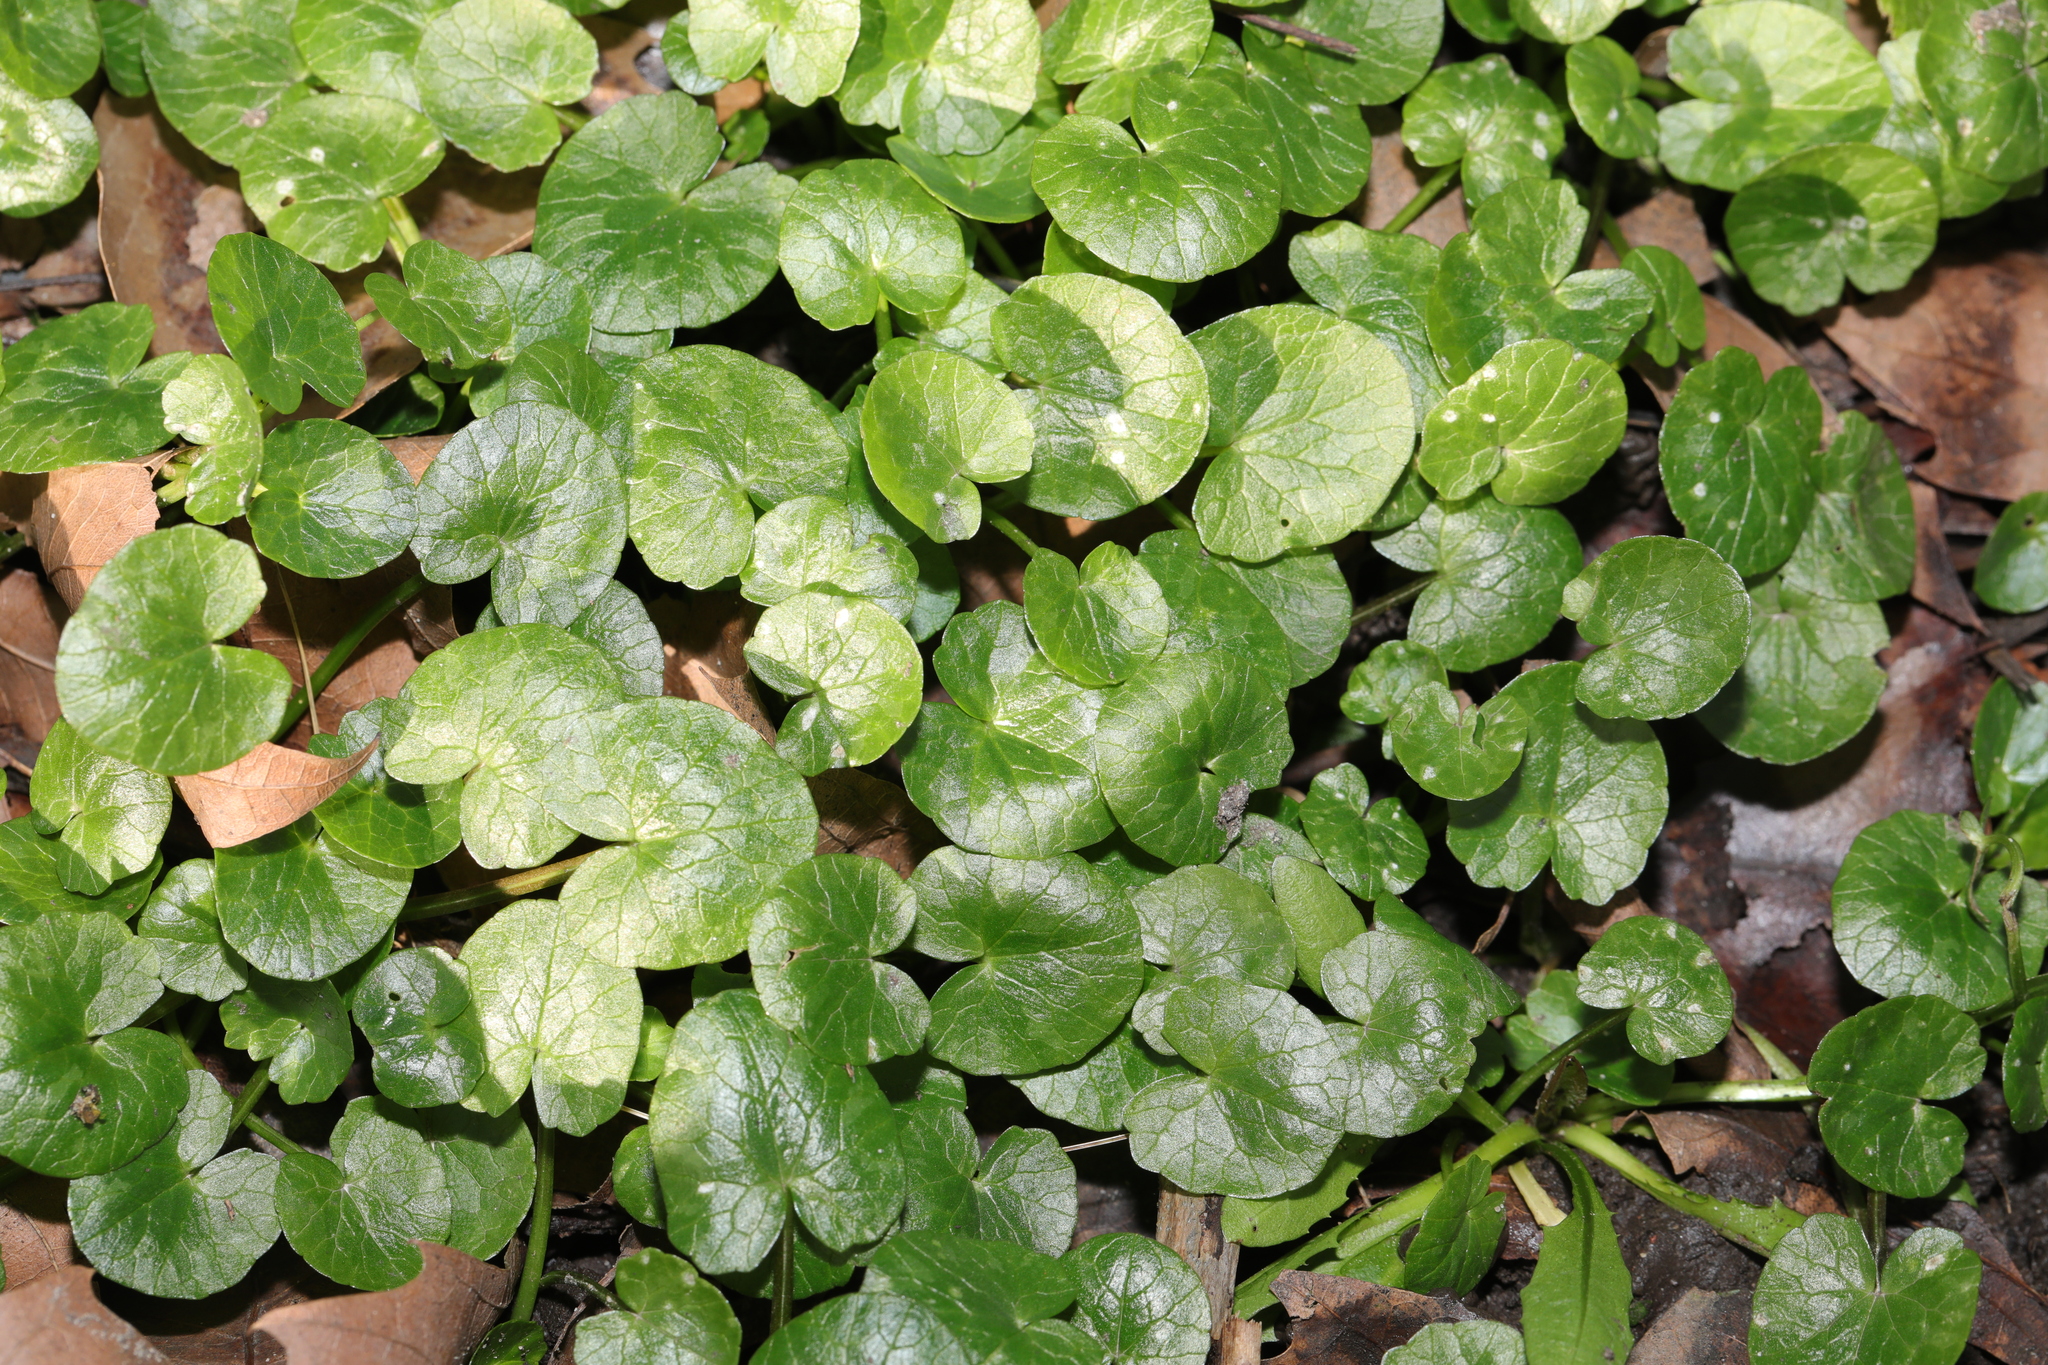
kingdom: Plantae
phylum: Tracheophyta
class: Magnoliopsida
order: Ranunculales
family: Ranunculaceae
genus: Ficaria
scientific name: Ficaria verna
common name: Lesser celandine
